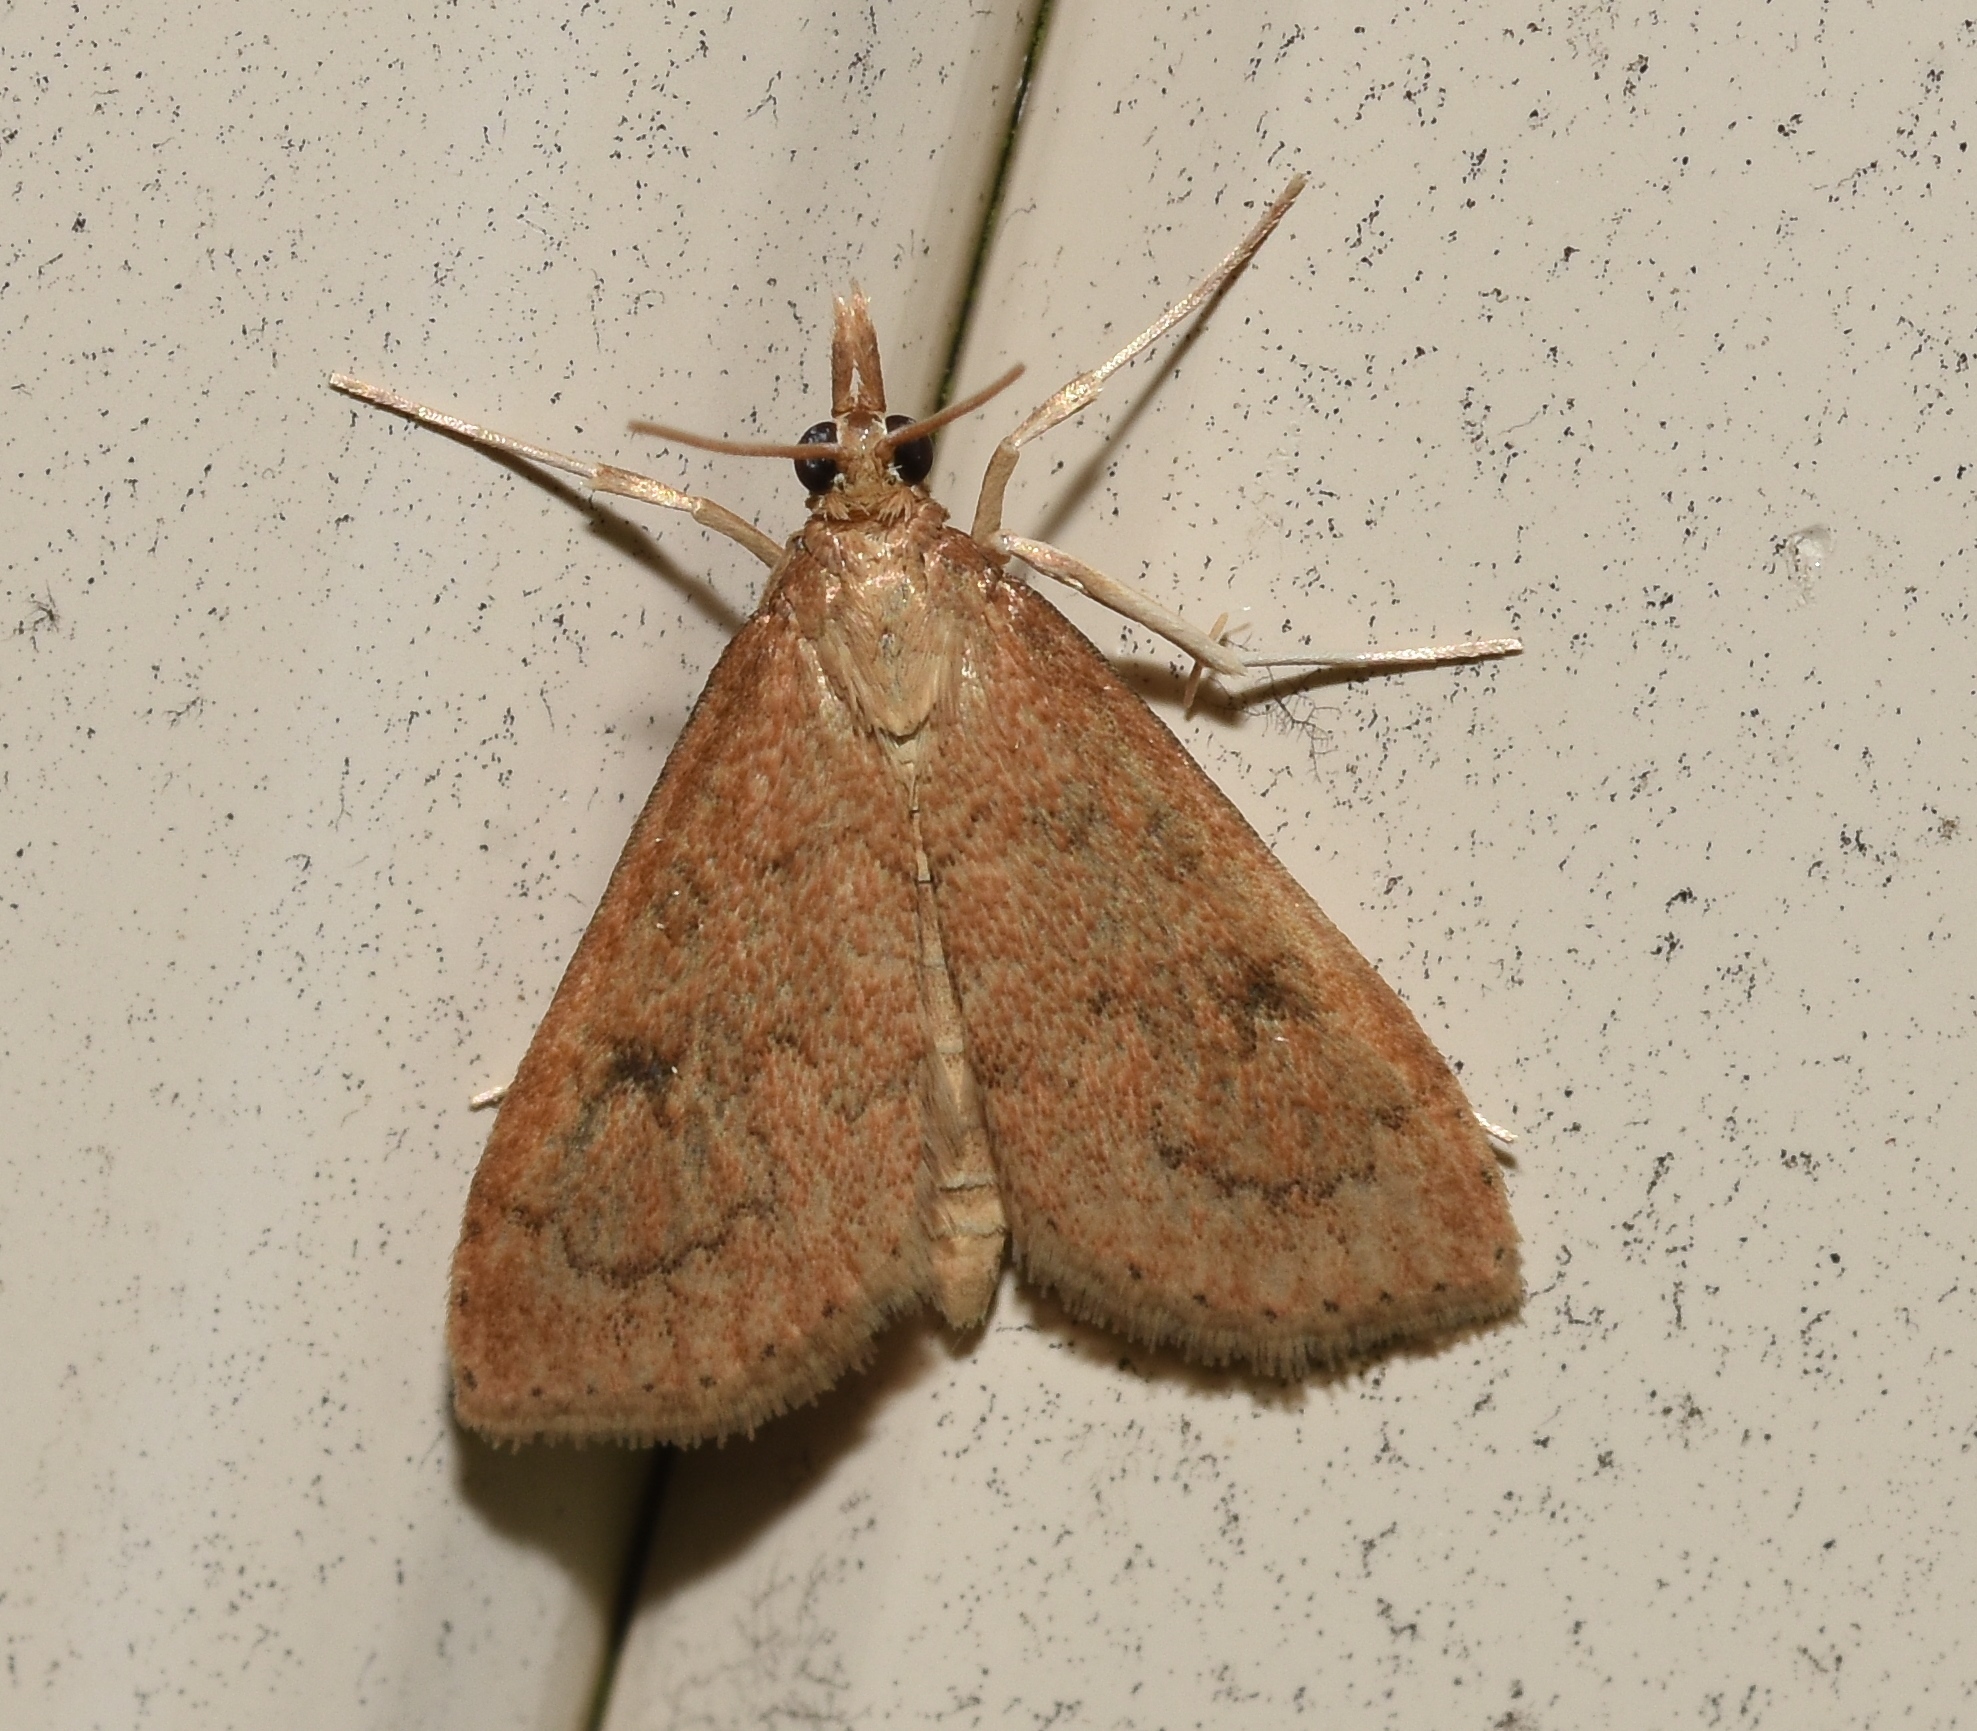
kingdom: Animalia
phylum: Arthropoda
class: Insecta
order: Lepidoptera
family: Crambidae
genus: Udea
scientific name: Udea rubigalis
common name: Celery leaftier moth
